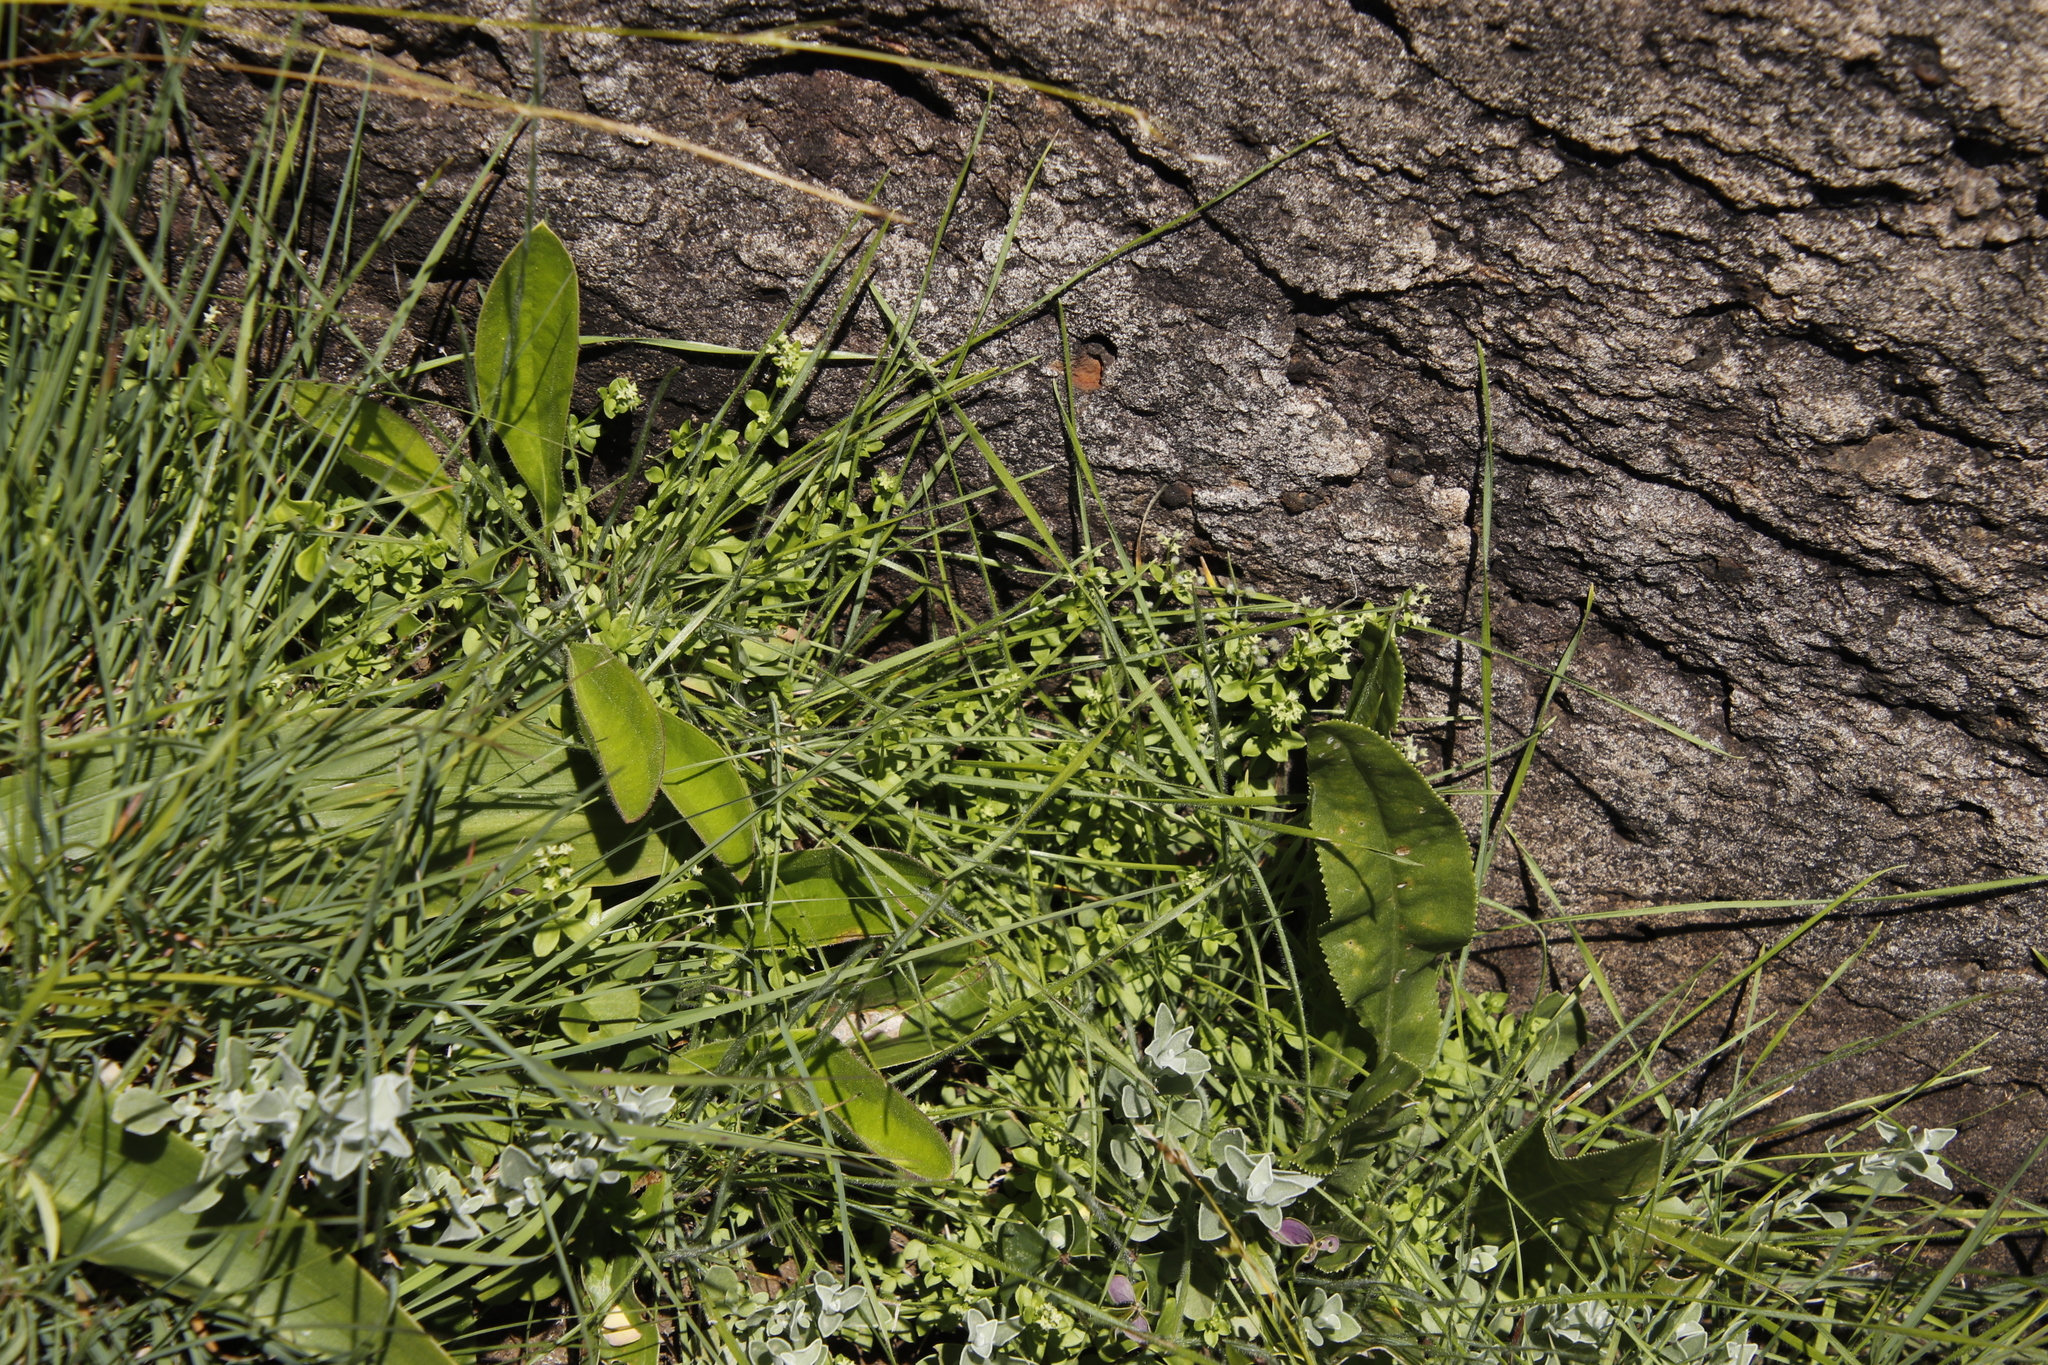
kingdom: Plantae
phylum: Tracheophyta
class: Magnoliopsida
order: Gentianales
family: Rubiaceae
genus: Galium
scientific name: Galium thunbergianum
